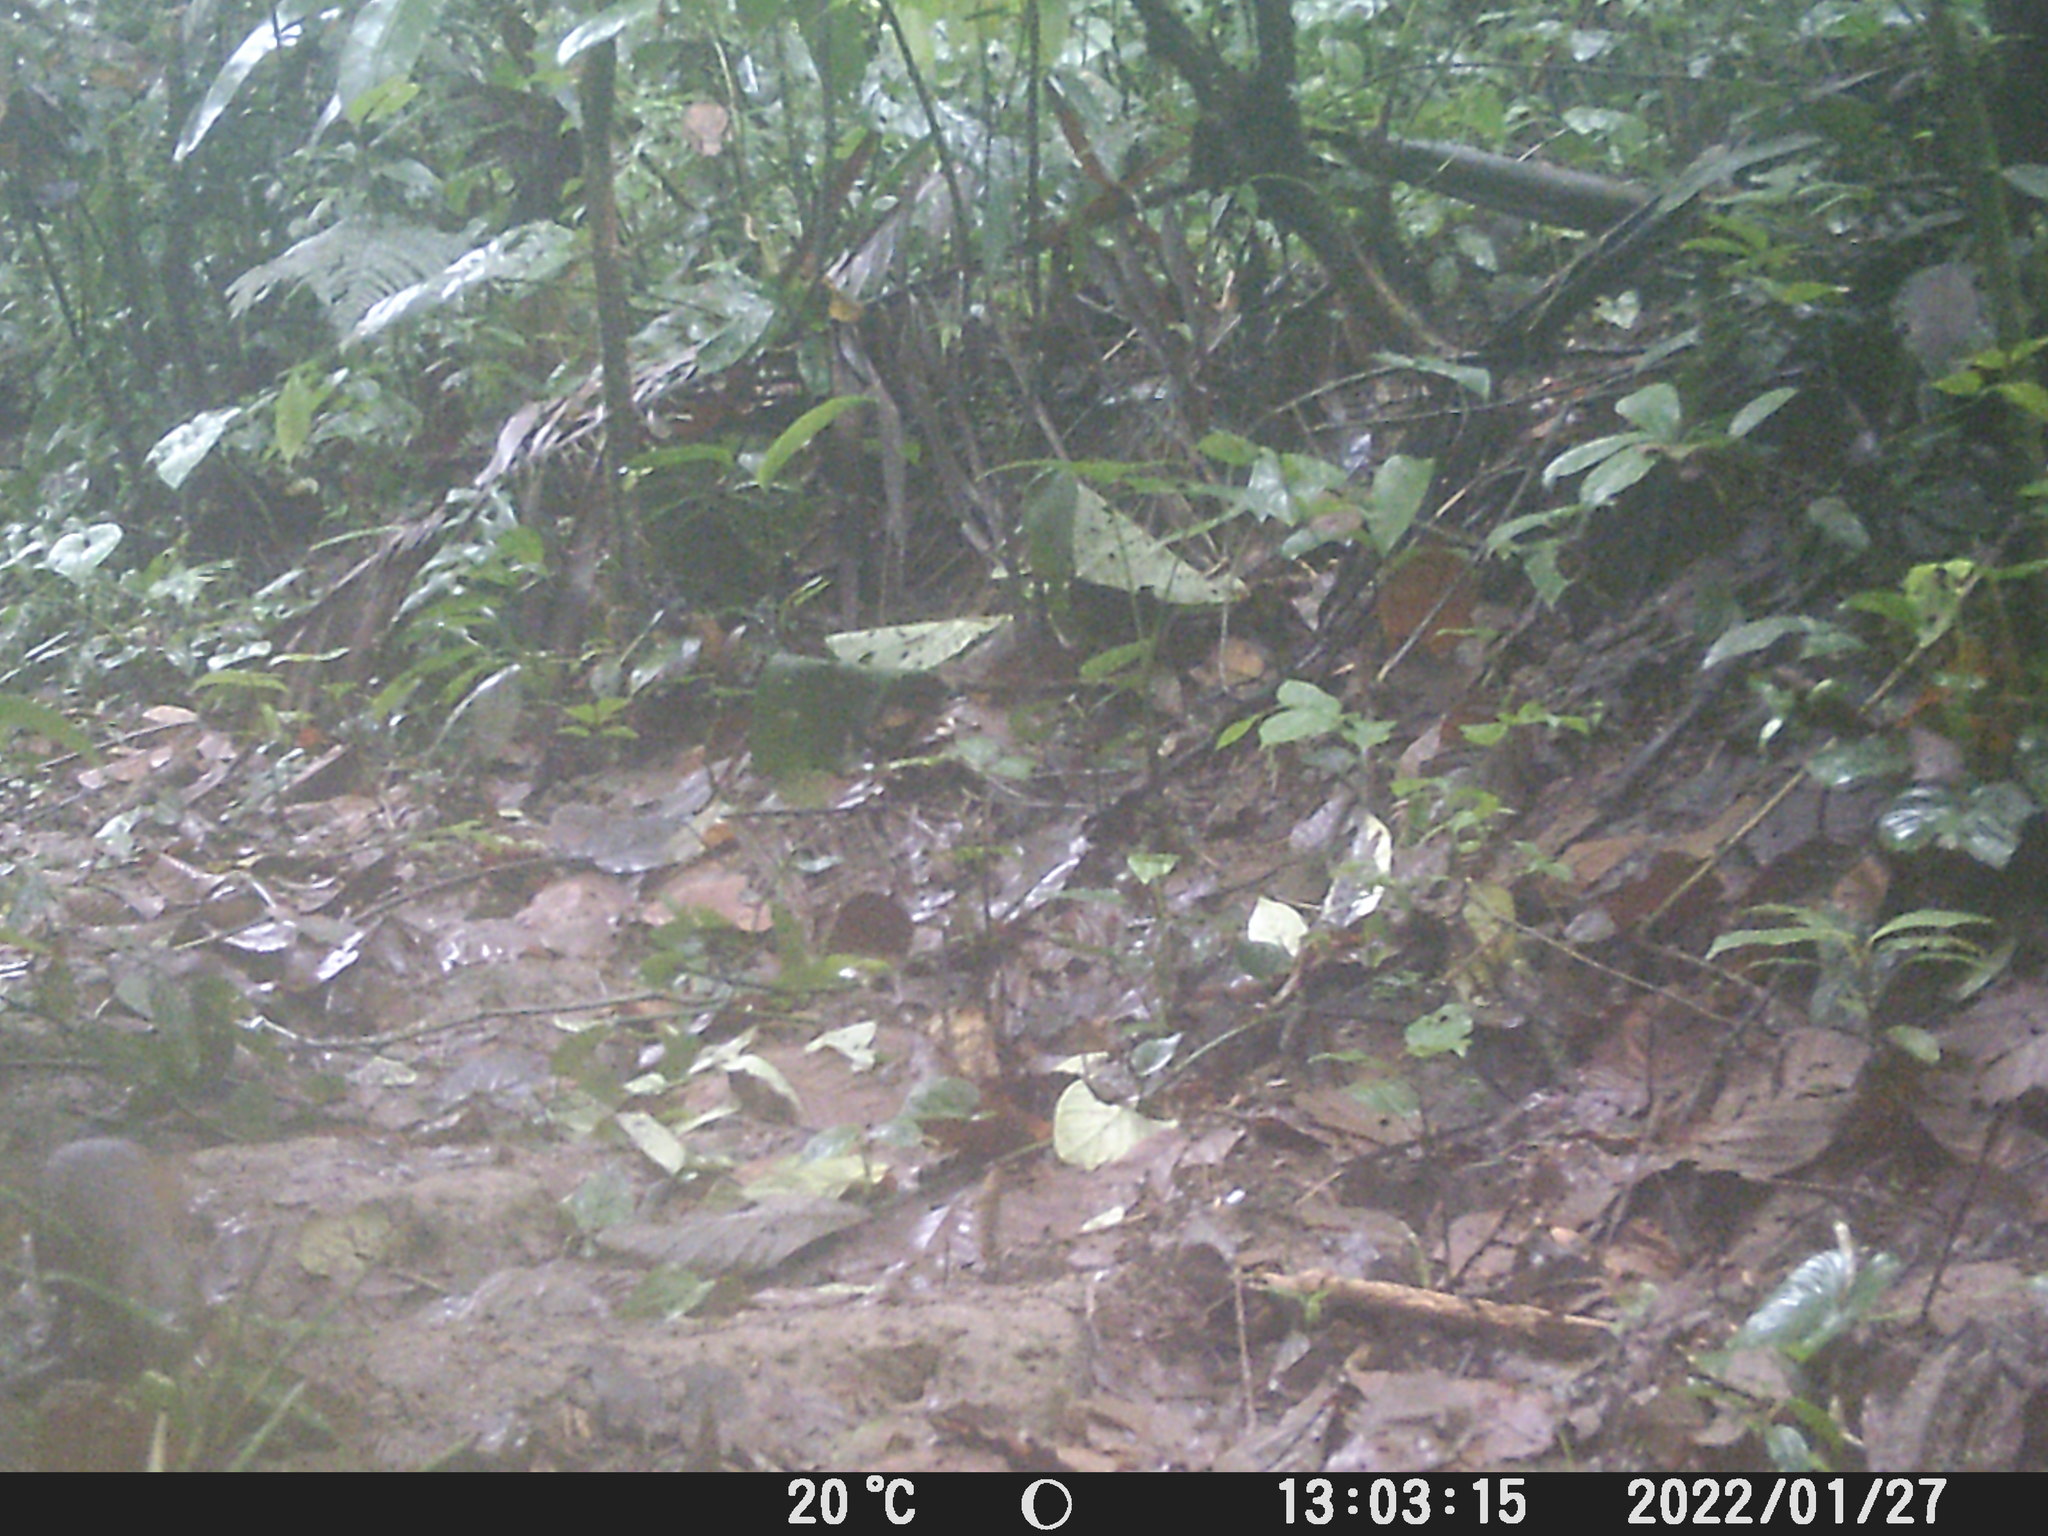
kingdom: Animalia
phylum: Chordata
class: Mammalia
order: Rodentia
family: Dasyproctidae
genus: Dasyprocta
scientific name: Dasyprocta punctata
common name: Central american agouti
